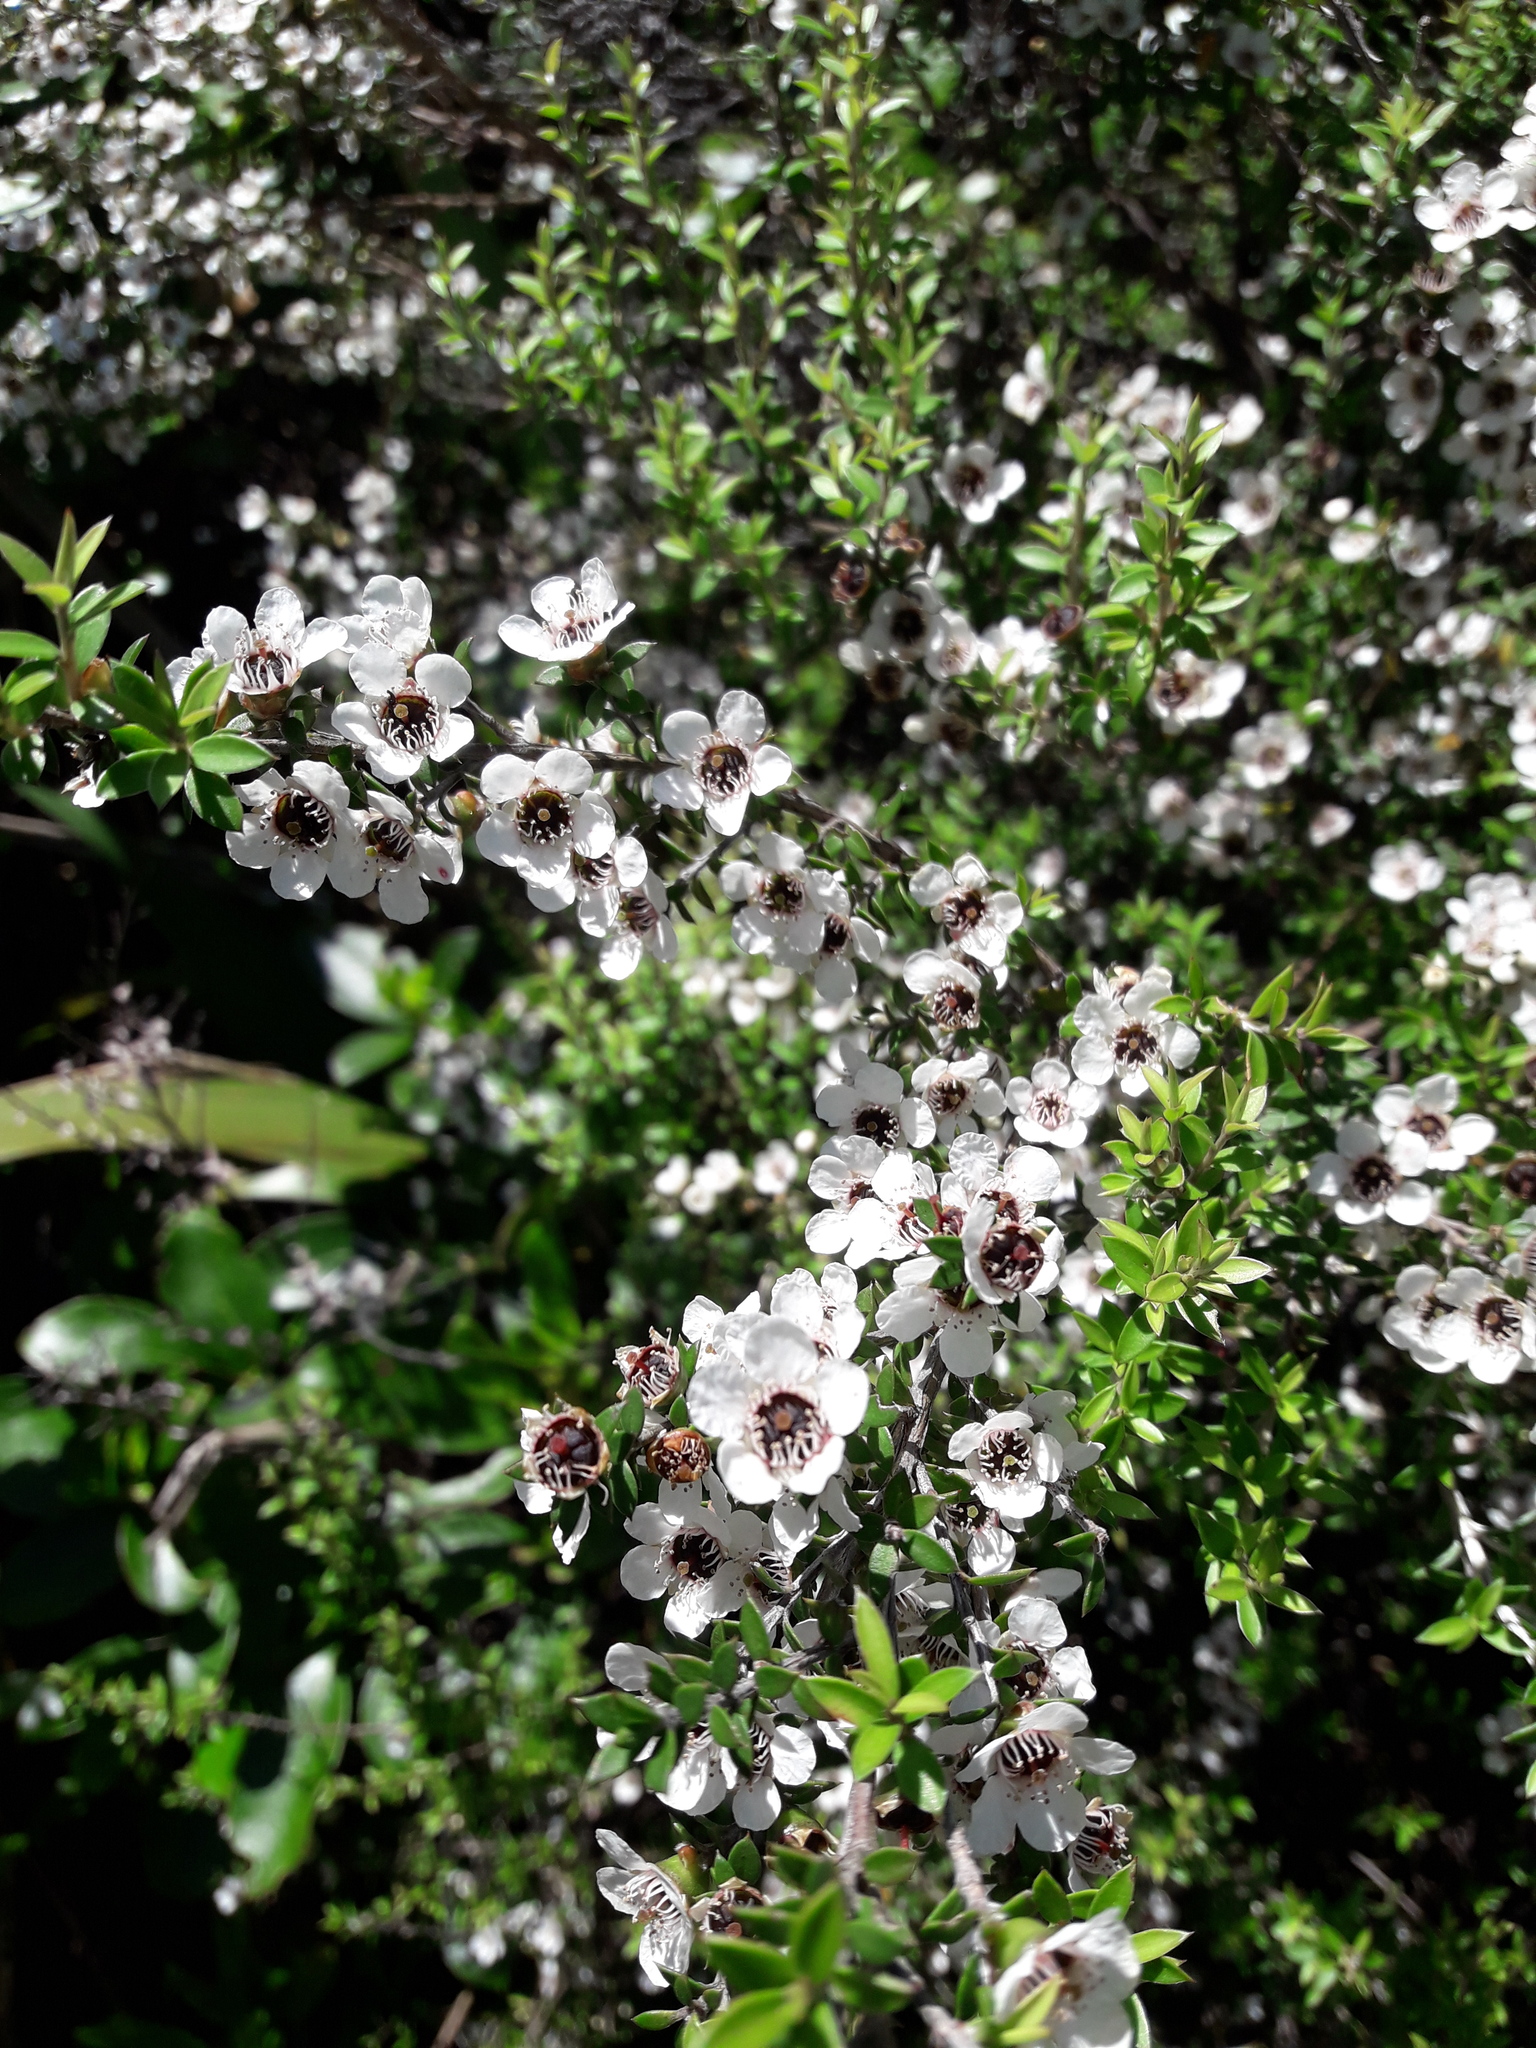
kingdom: Plantae
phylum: Tracheophyta
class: Magnoliopsida
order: Myrtales
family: Myrtaceae
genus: Leptospermum
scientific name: Leptospermum scoparium
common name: Broom tea-tree
